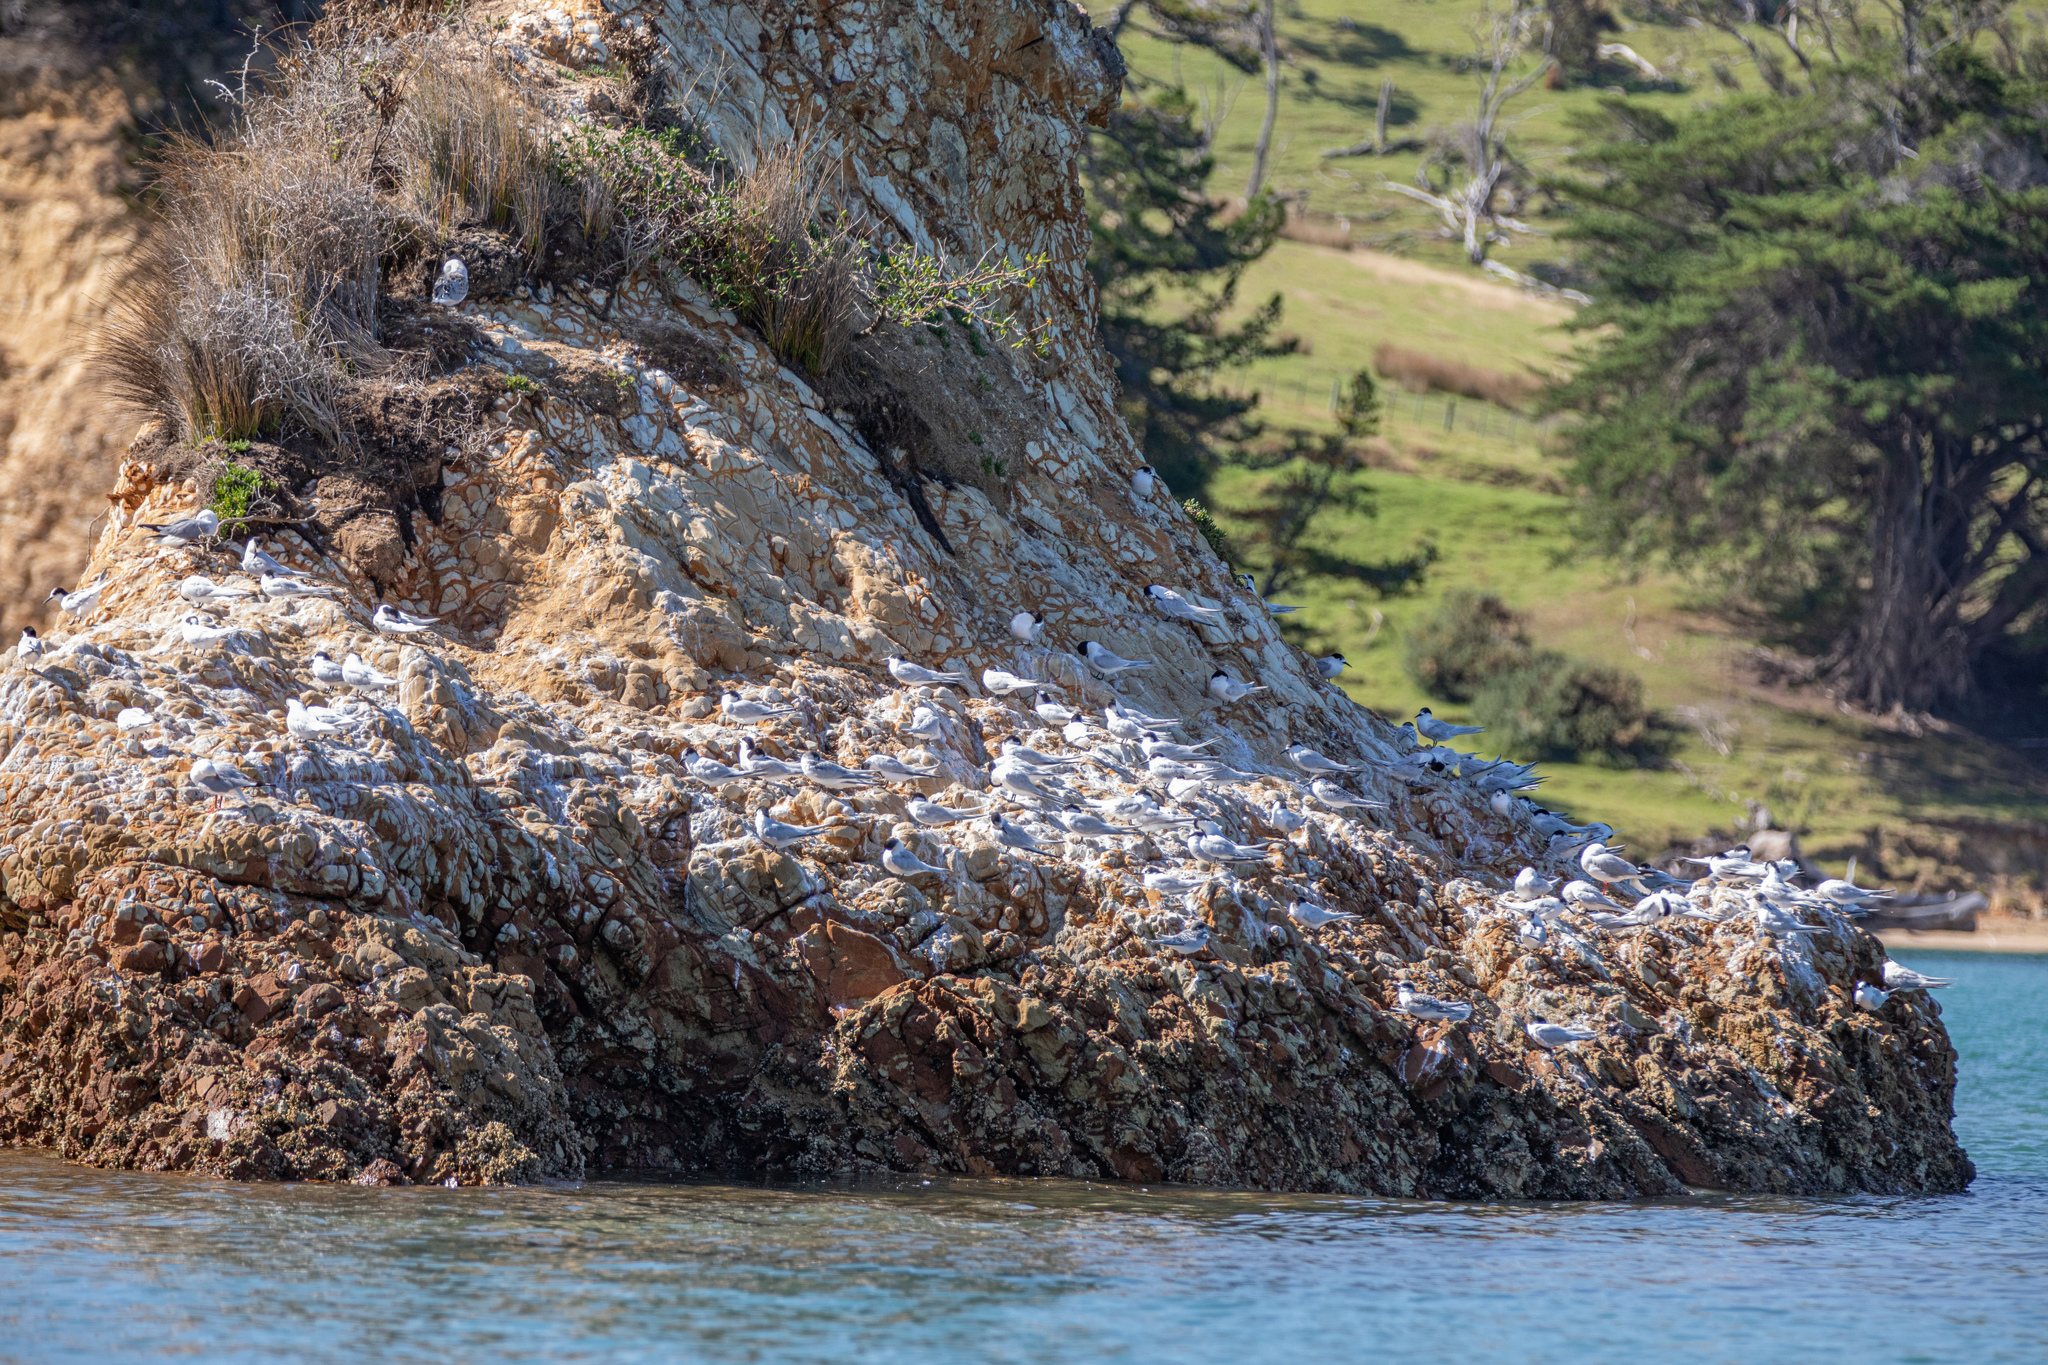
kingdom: Animalia
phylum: Chordata
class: Aves
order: Charadriiformes
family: Laridae
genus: Sterna
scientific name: Sterna striata
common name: White-fronted tern
